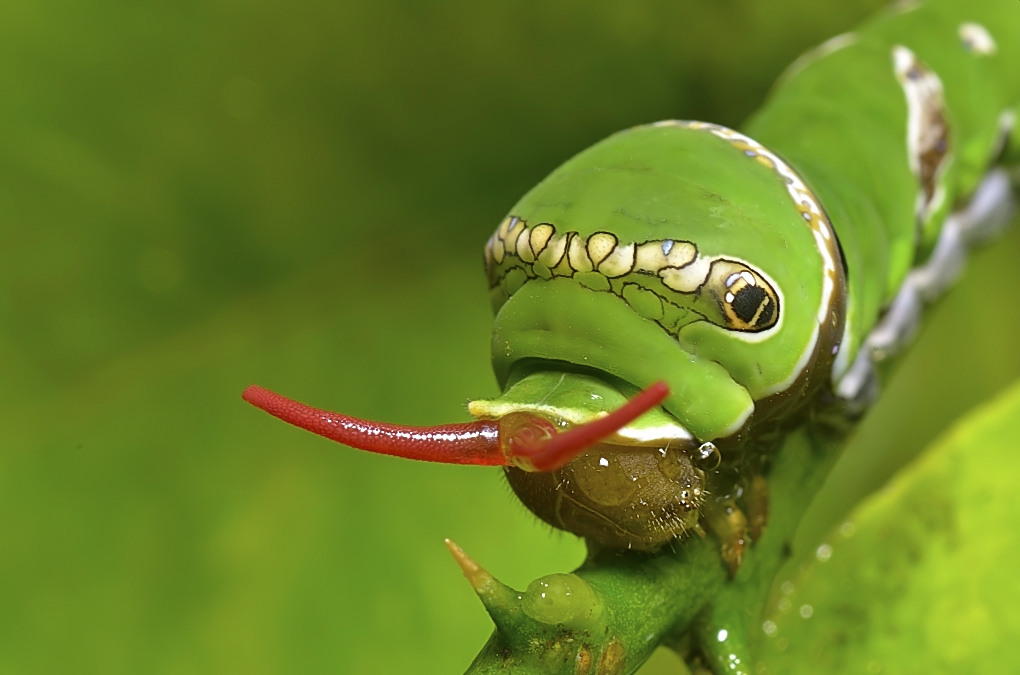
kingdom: Animalia
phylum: Arthropoda
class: Insecta
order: Lepidoptera
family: Papilionidae
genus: Papilio
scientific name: Papilio polytes
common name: Common mormon
